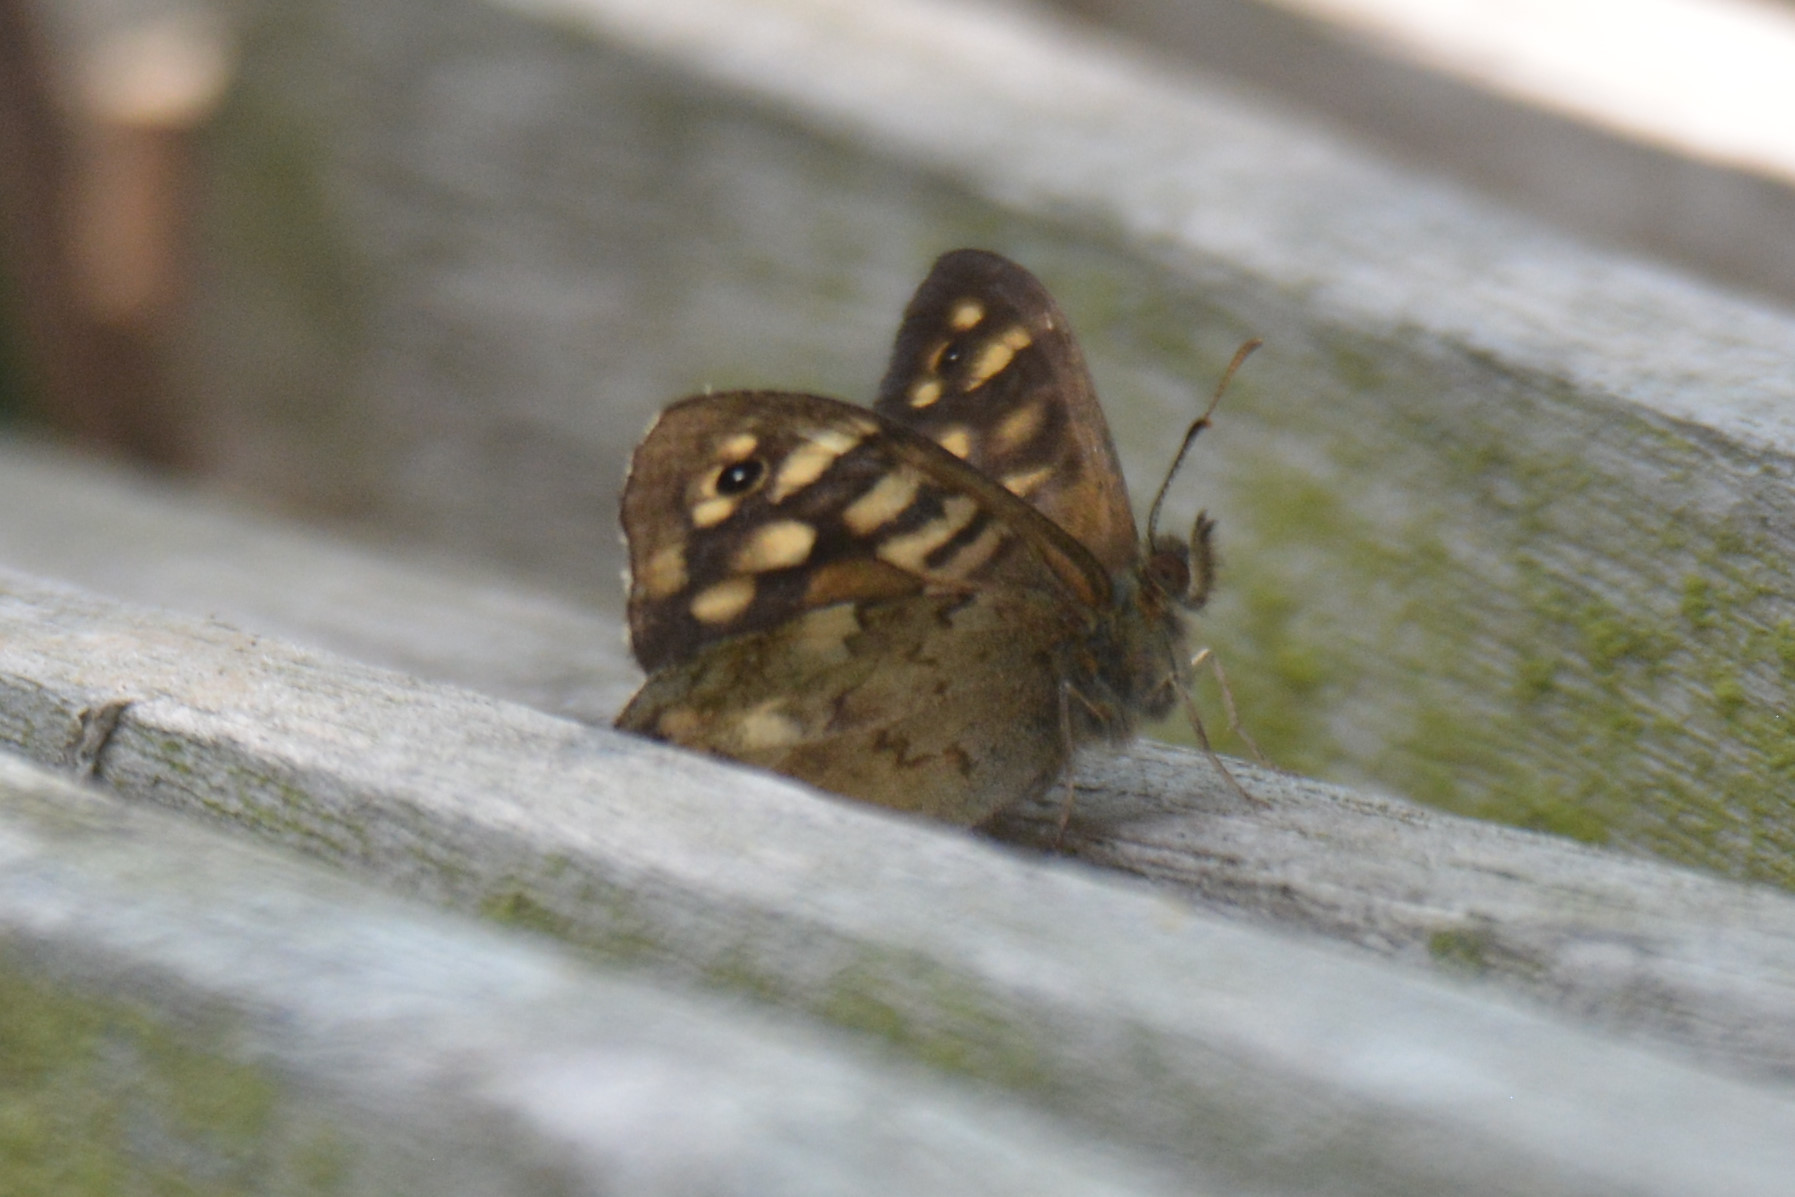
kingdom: Animalia
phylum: Arthropoda
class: Insecta
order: Lepidoptera
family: Nymphalidae
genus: Pararge
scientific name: Pararge aegeria
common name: Speckled wood
